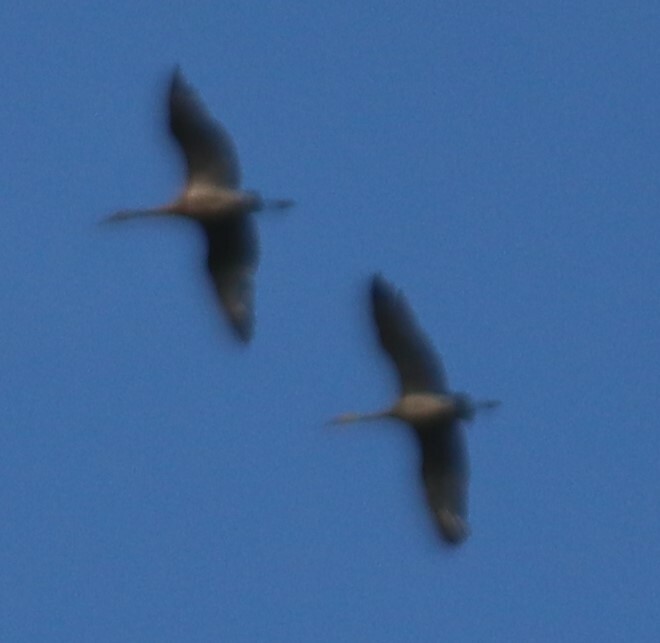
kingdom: Animalia
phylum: Chordata
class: Aves
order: Gruiformes
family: Gruidae
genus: Grus
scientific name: Grus canadensis
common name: Sandhill crane
